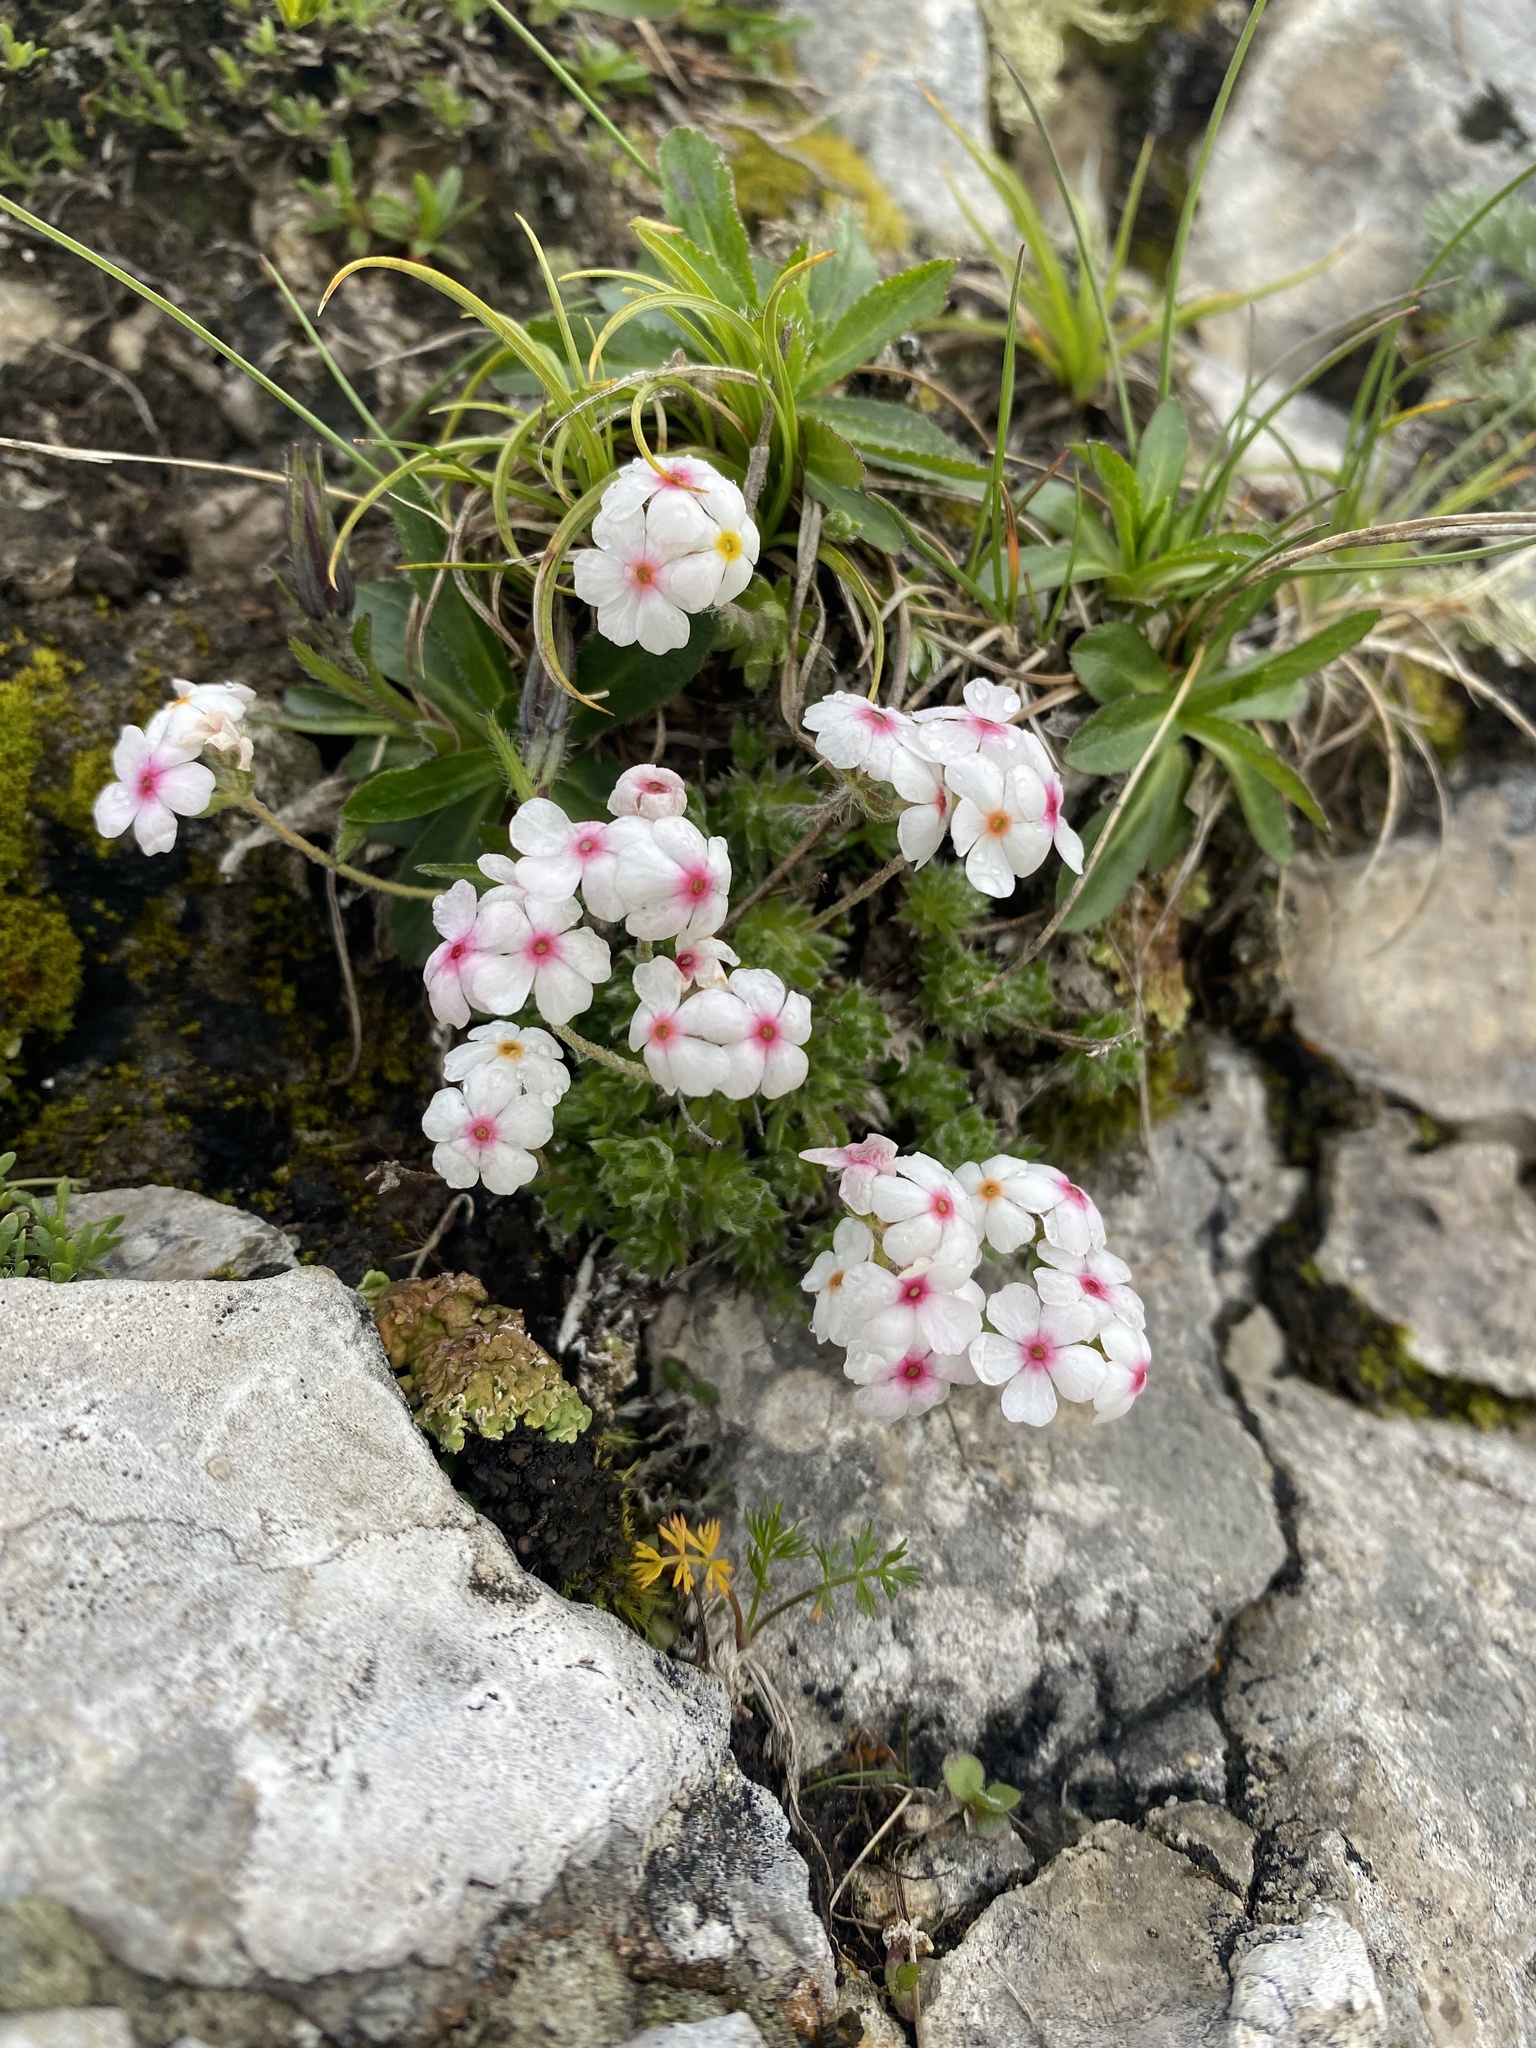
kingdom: Plantae
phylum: Tracheophyta
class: Magnoliopsida
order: Ericales
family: Primulaceae
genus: Androsace
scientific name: Androsace villosa
